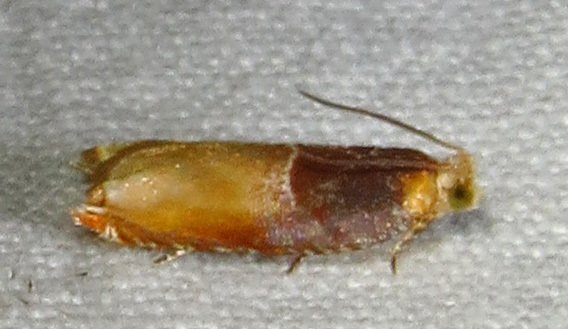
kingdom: Animalia
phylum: Arthropoda
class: Insecta
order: Lepidoptera
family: Tortricidae
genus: Ancylis
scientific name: Ancylis divisana
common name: Two-toned ancylis moth
